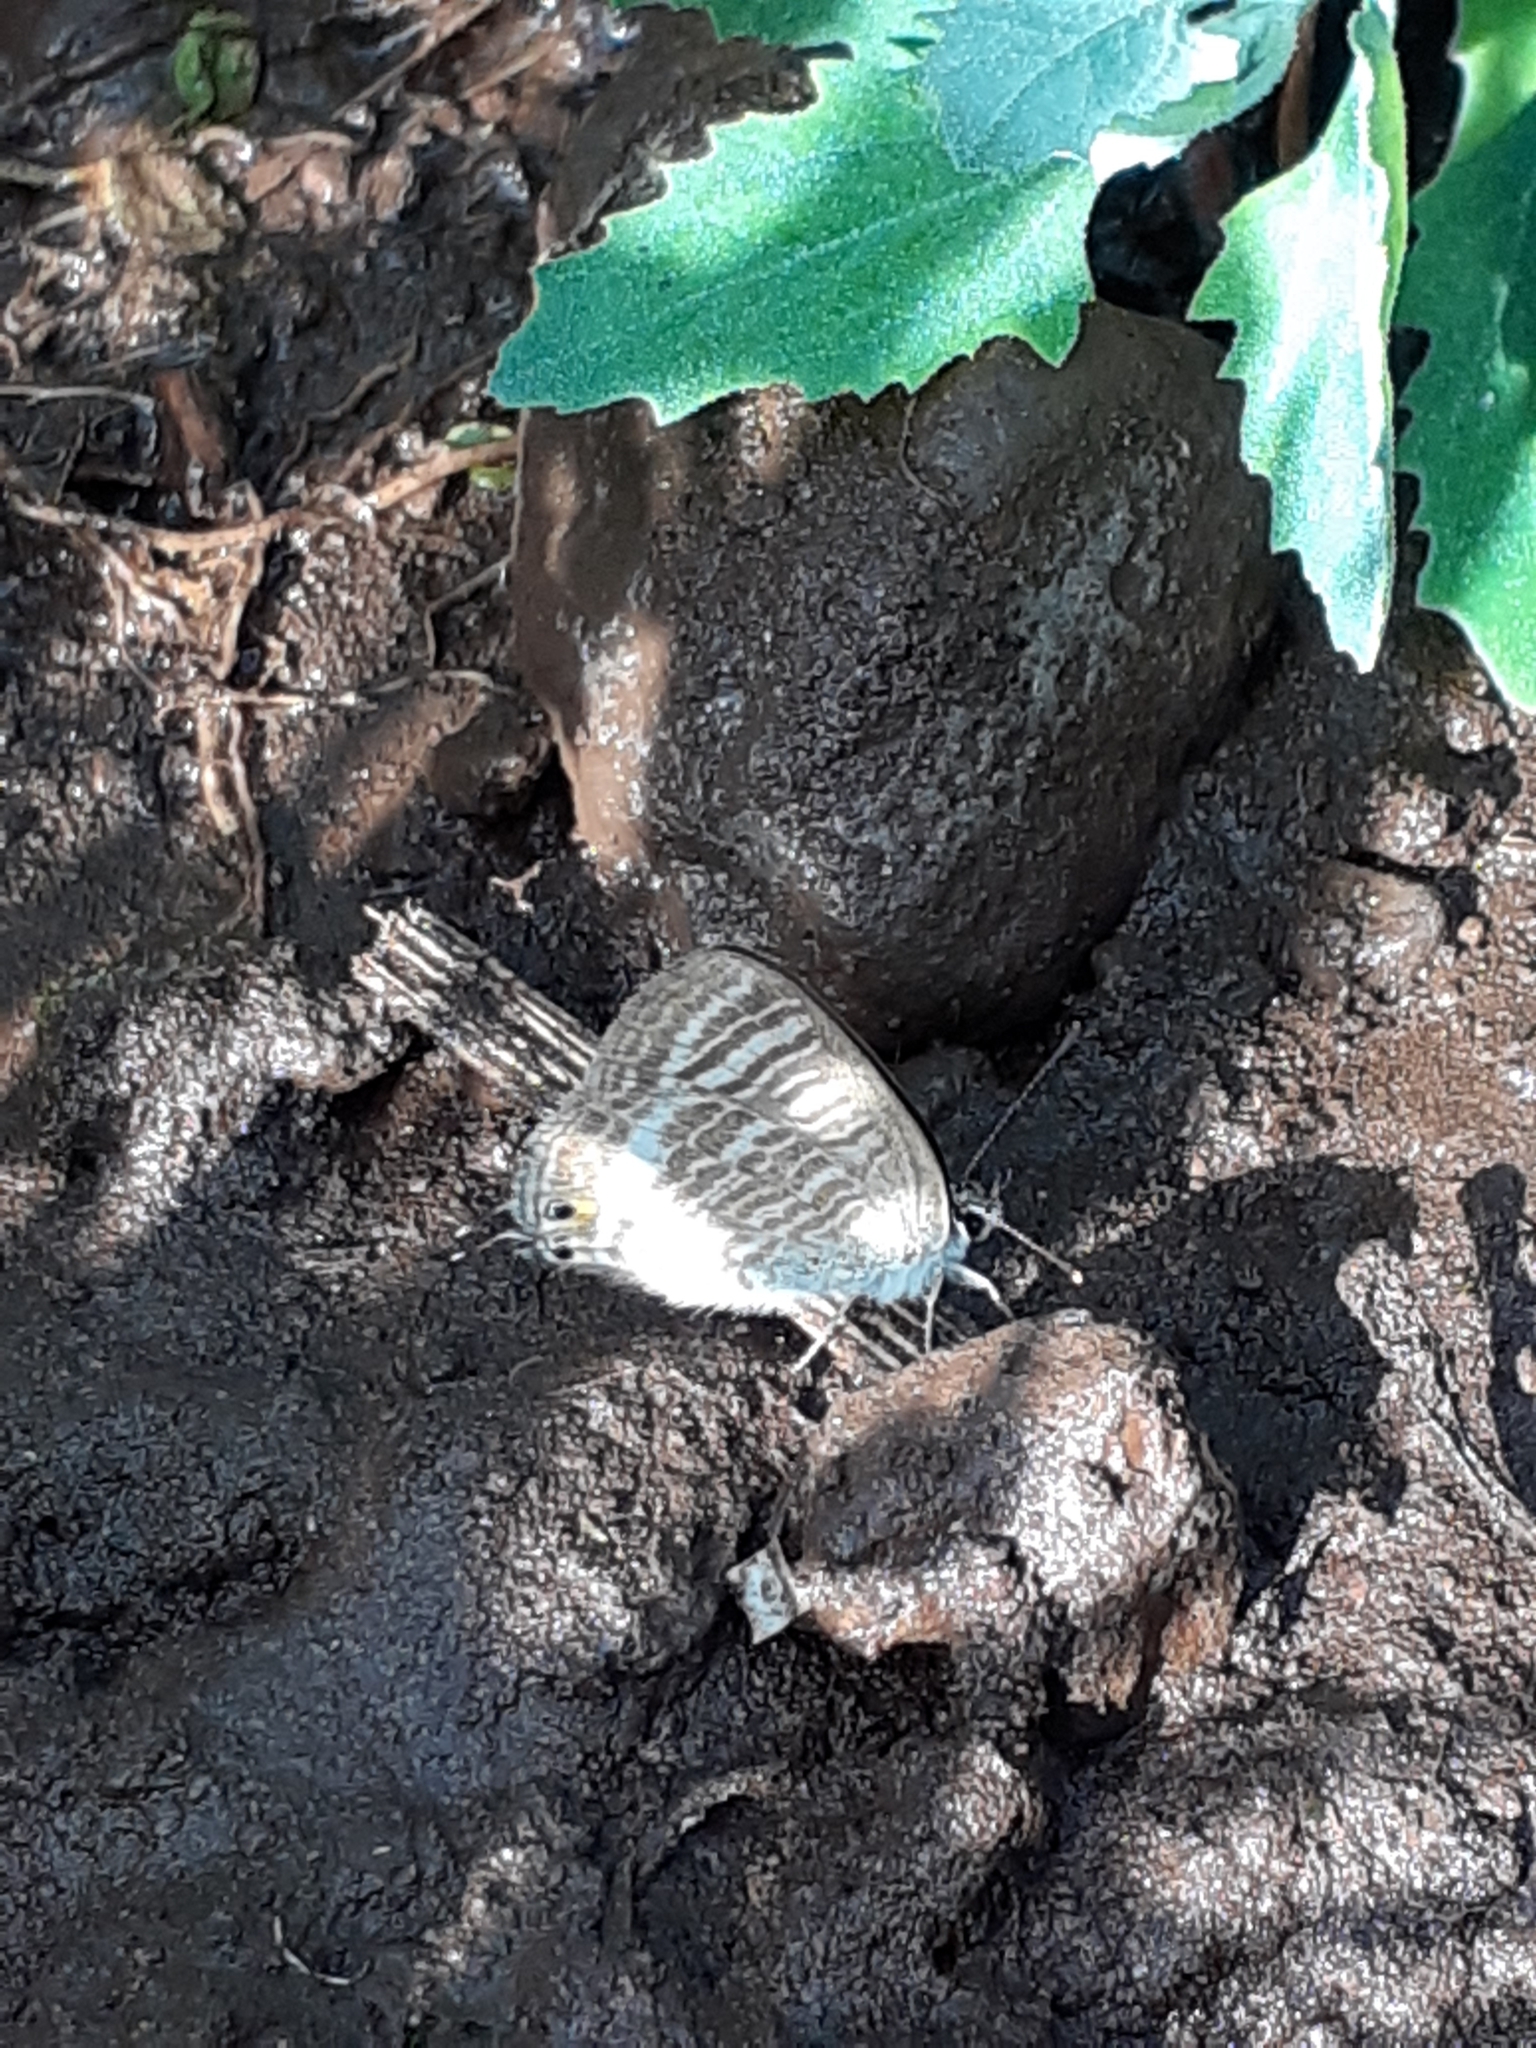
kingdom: Animalia
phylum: Arthropoda
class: Insecta
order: Lepidoptera
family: Lycaenidae
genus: Lampides
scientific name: Lampides boeticus
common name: Long-tailed blue
